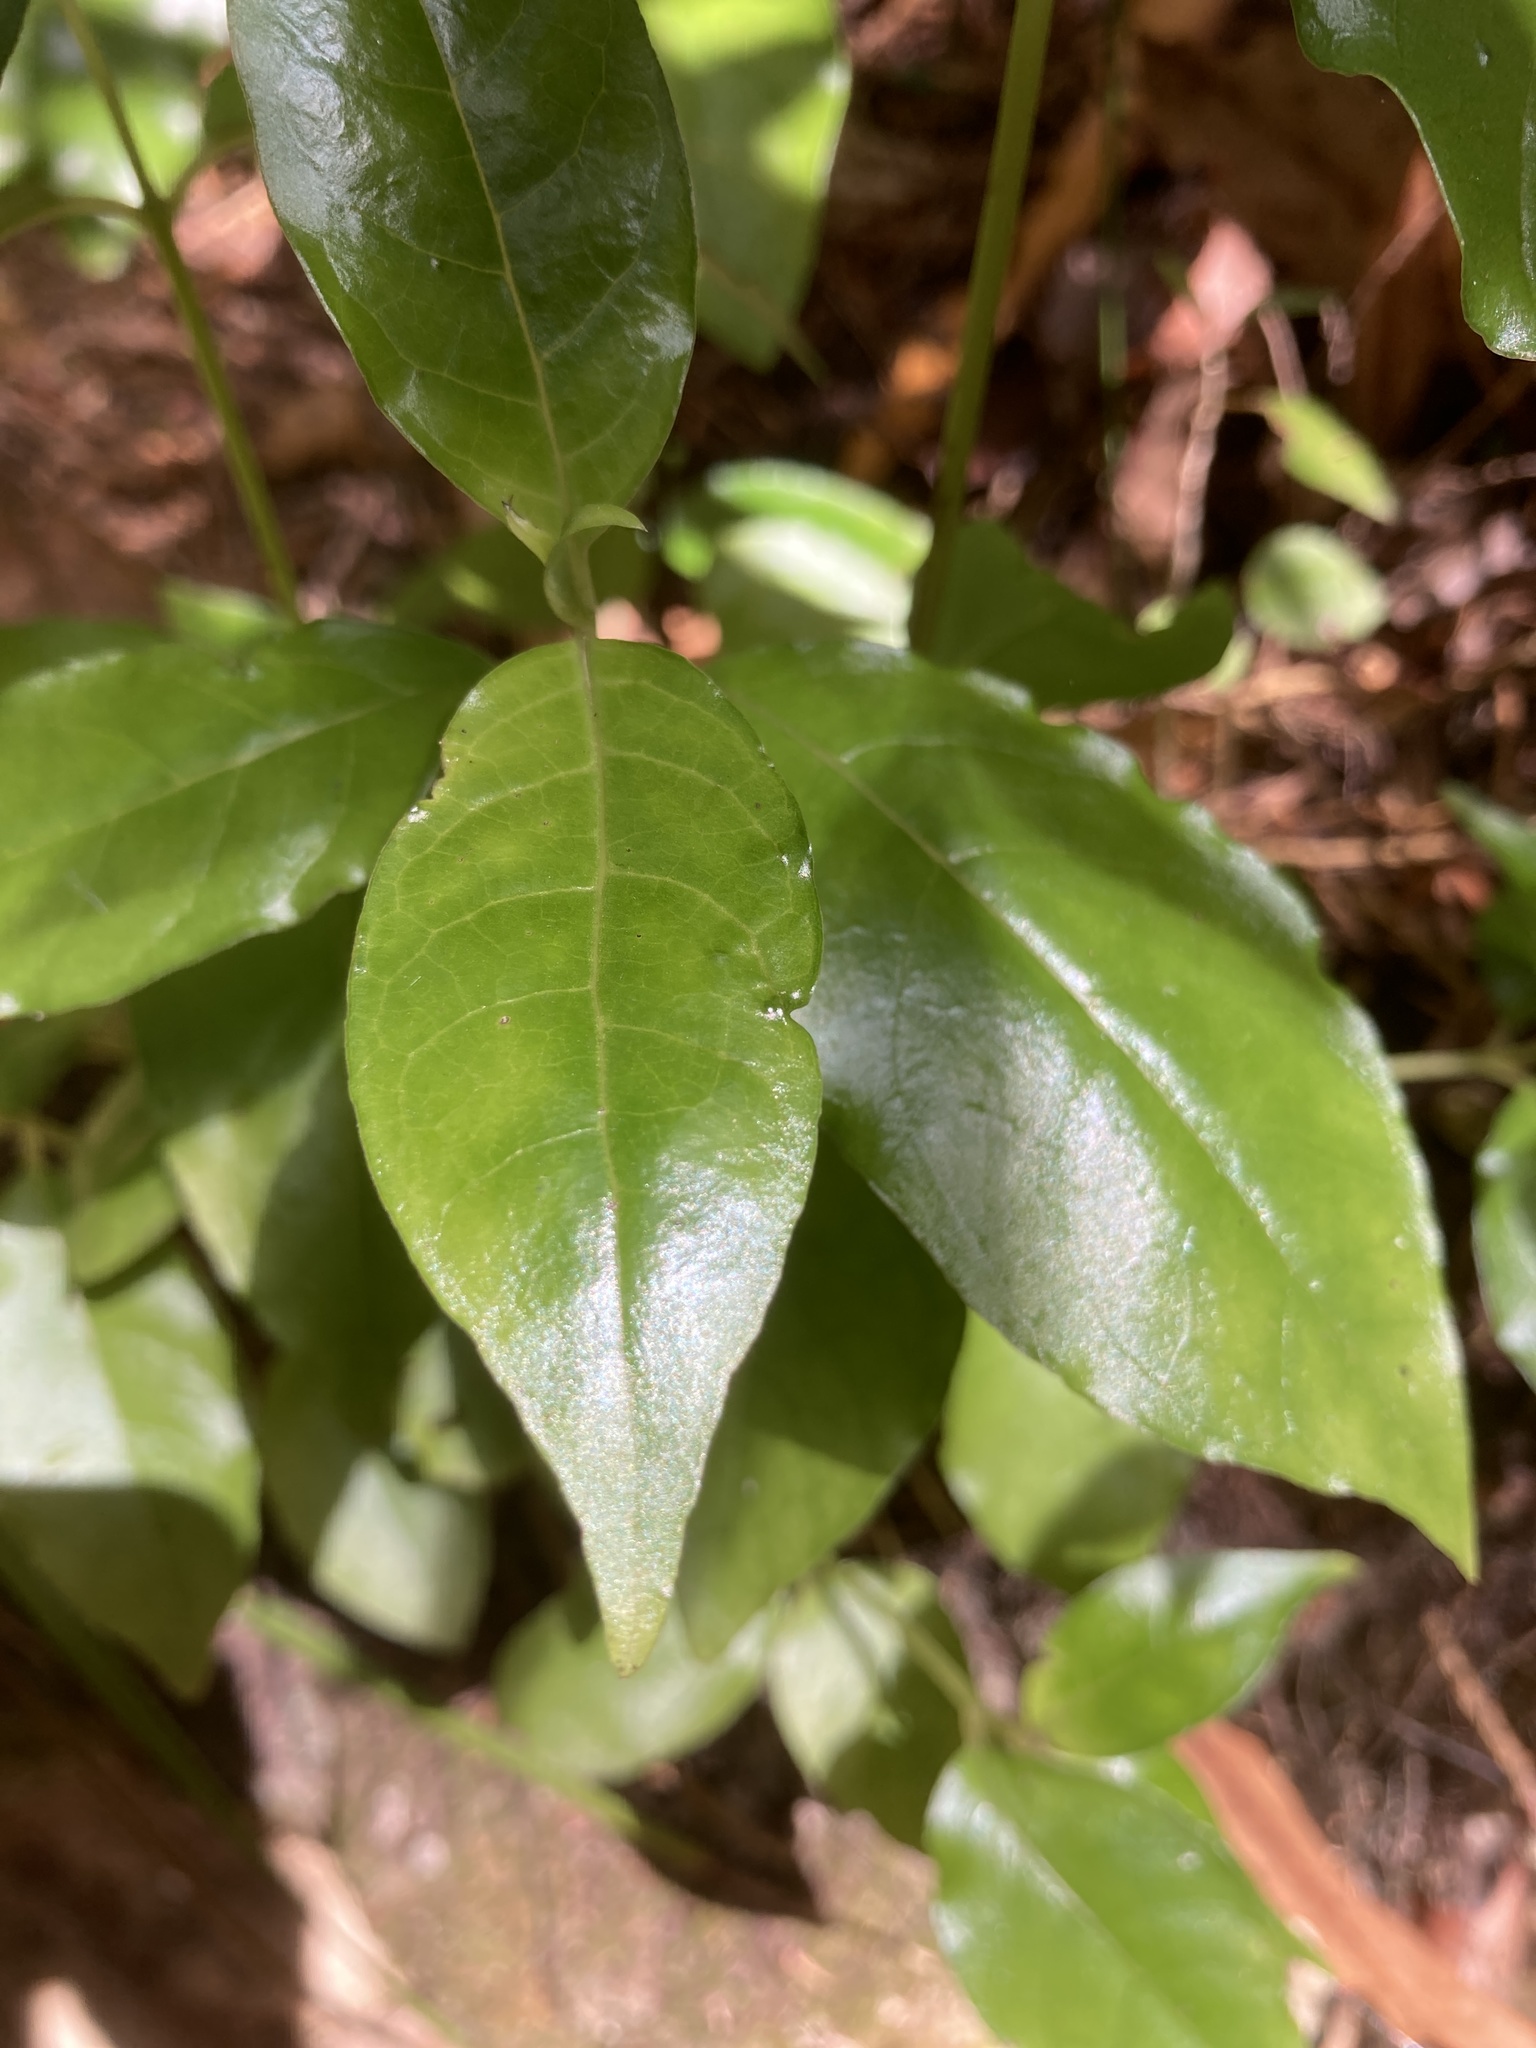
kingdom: Plantae
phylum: Tracheophyta
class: Magnoliopsida
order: Gentianales
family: Loganiaceae
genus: Geniostoma
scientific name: Geniostoma ligustrifolium
